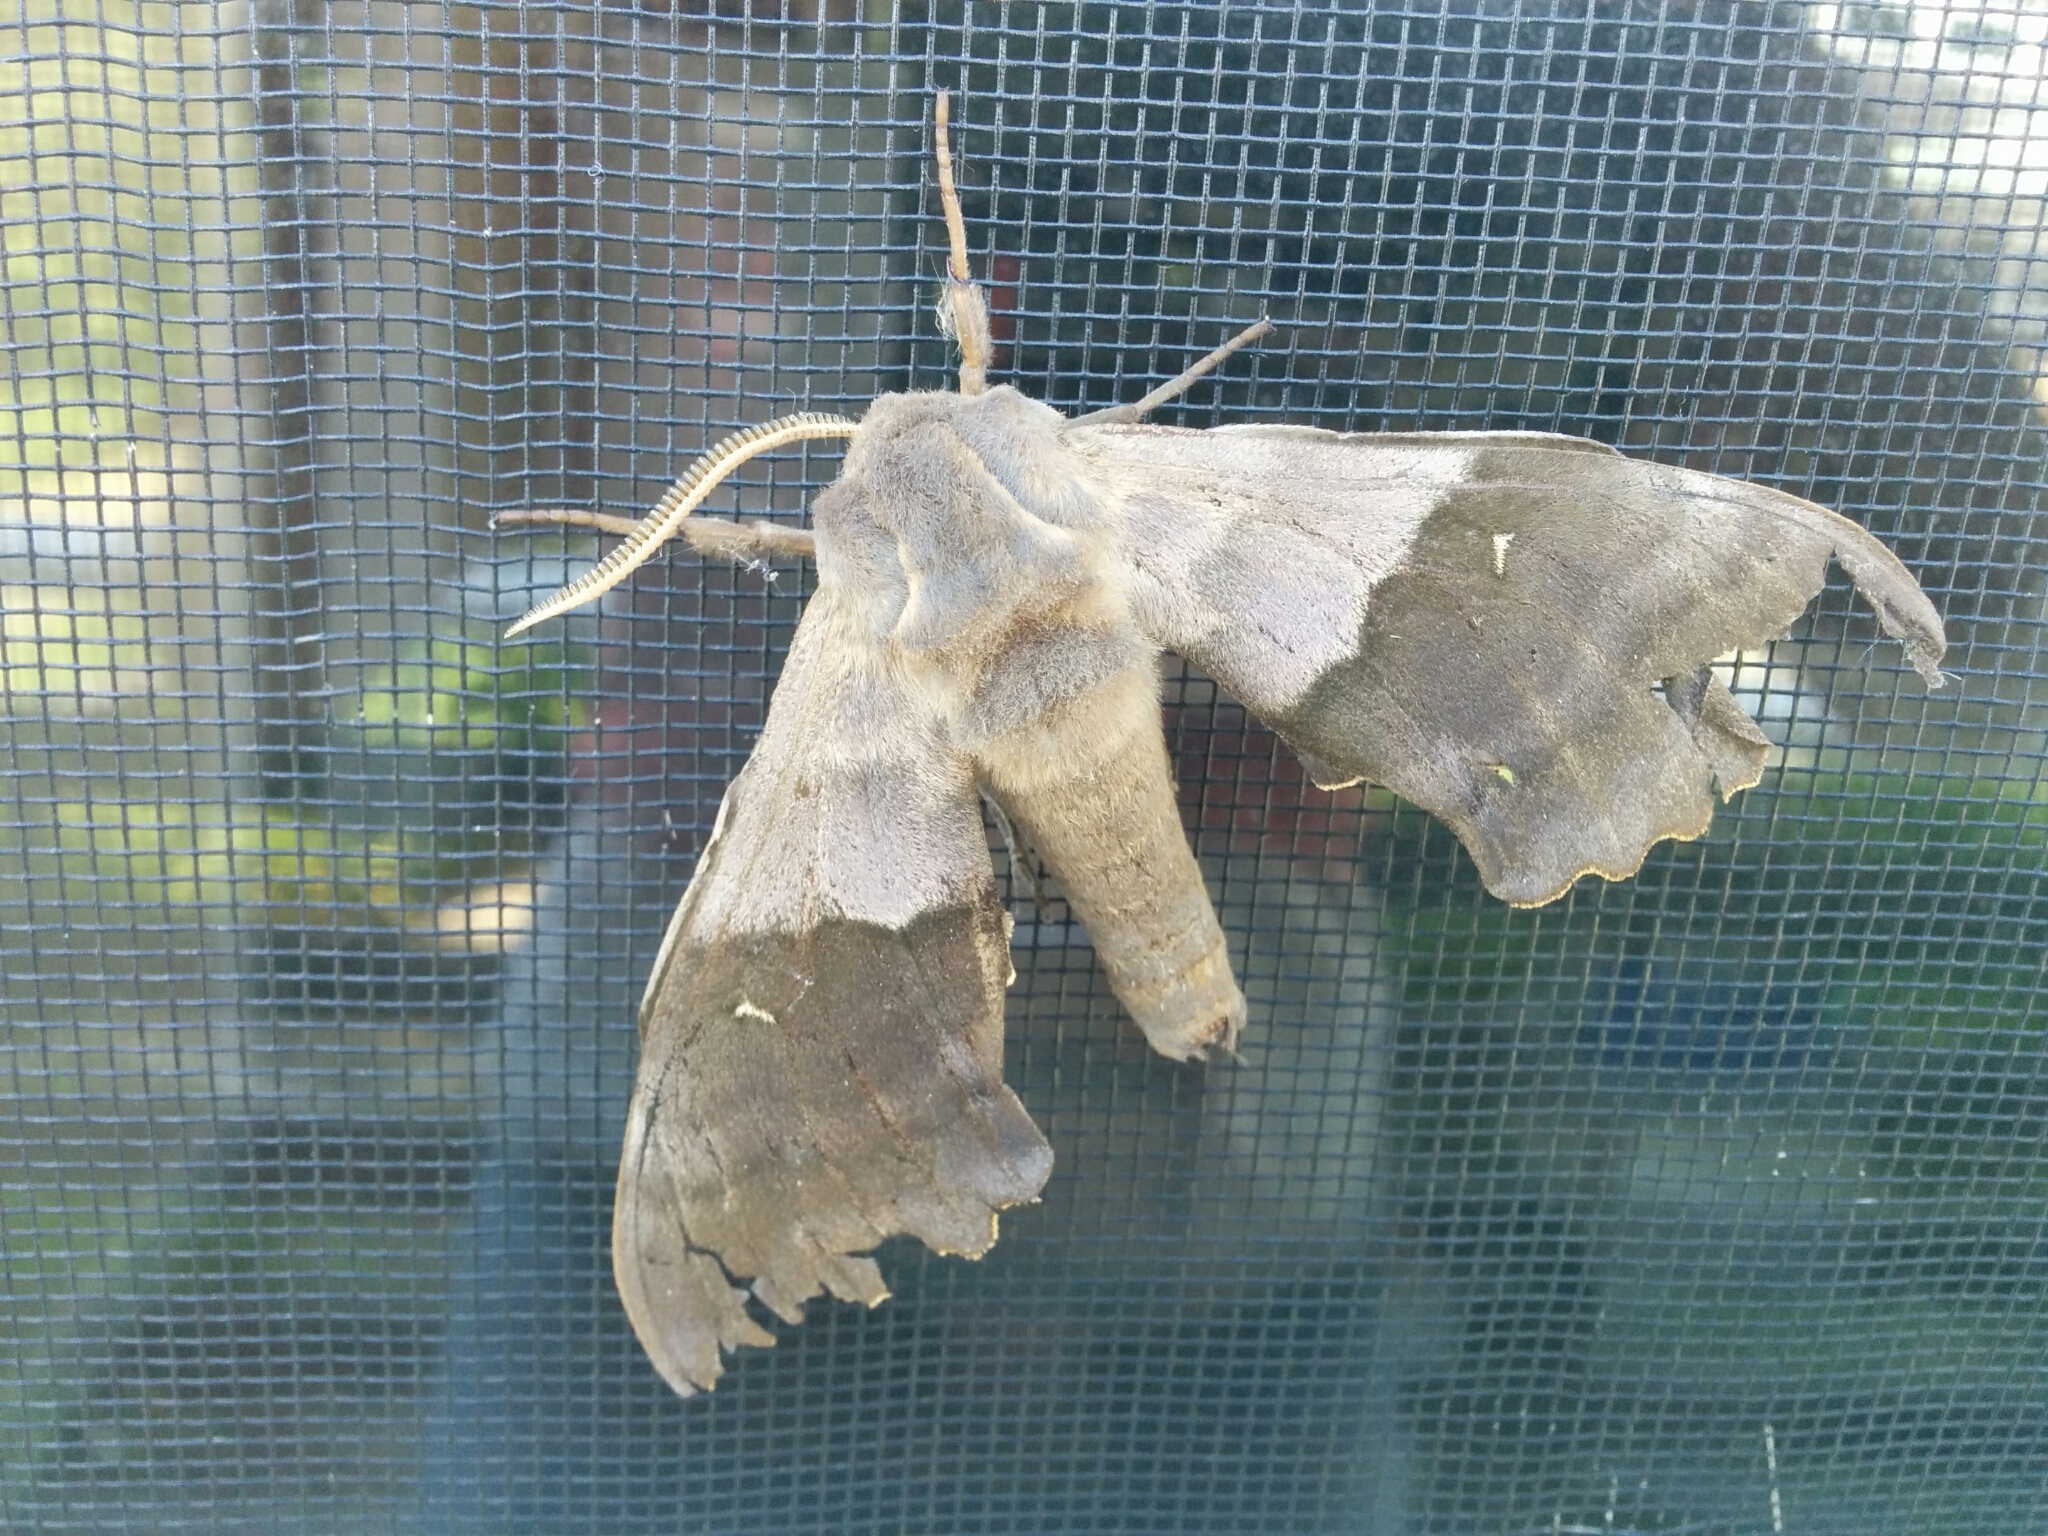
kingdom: Animalia
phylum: Arthropoda
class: Insecta
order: Lepidoptera
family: Sphingidae
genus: Pachysphinx
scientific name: Pachysphinx modesta
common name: Big poplar sphinx
